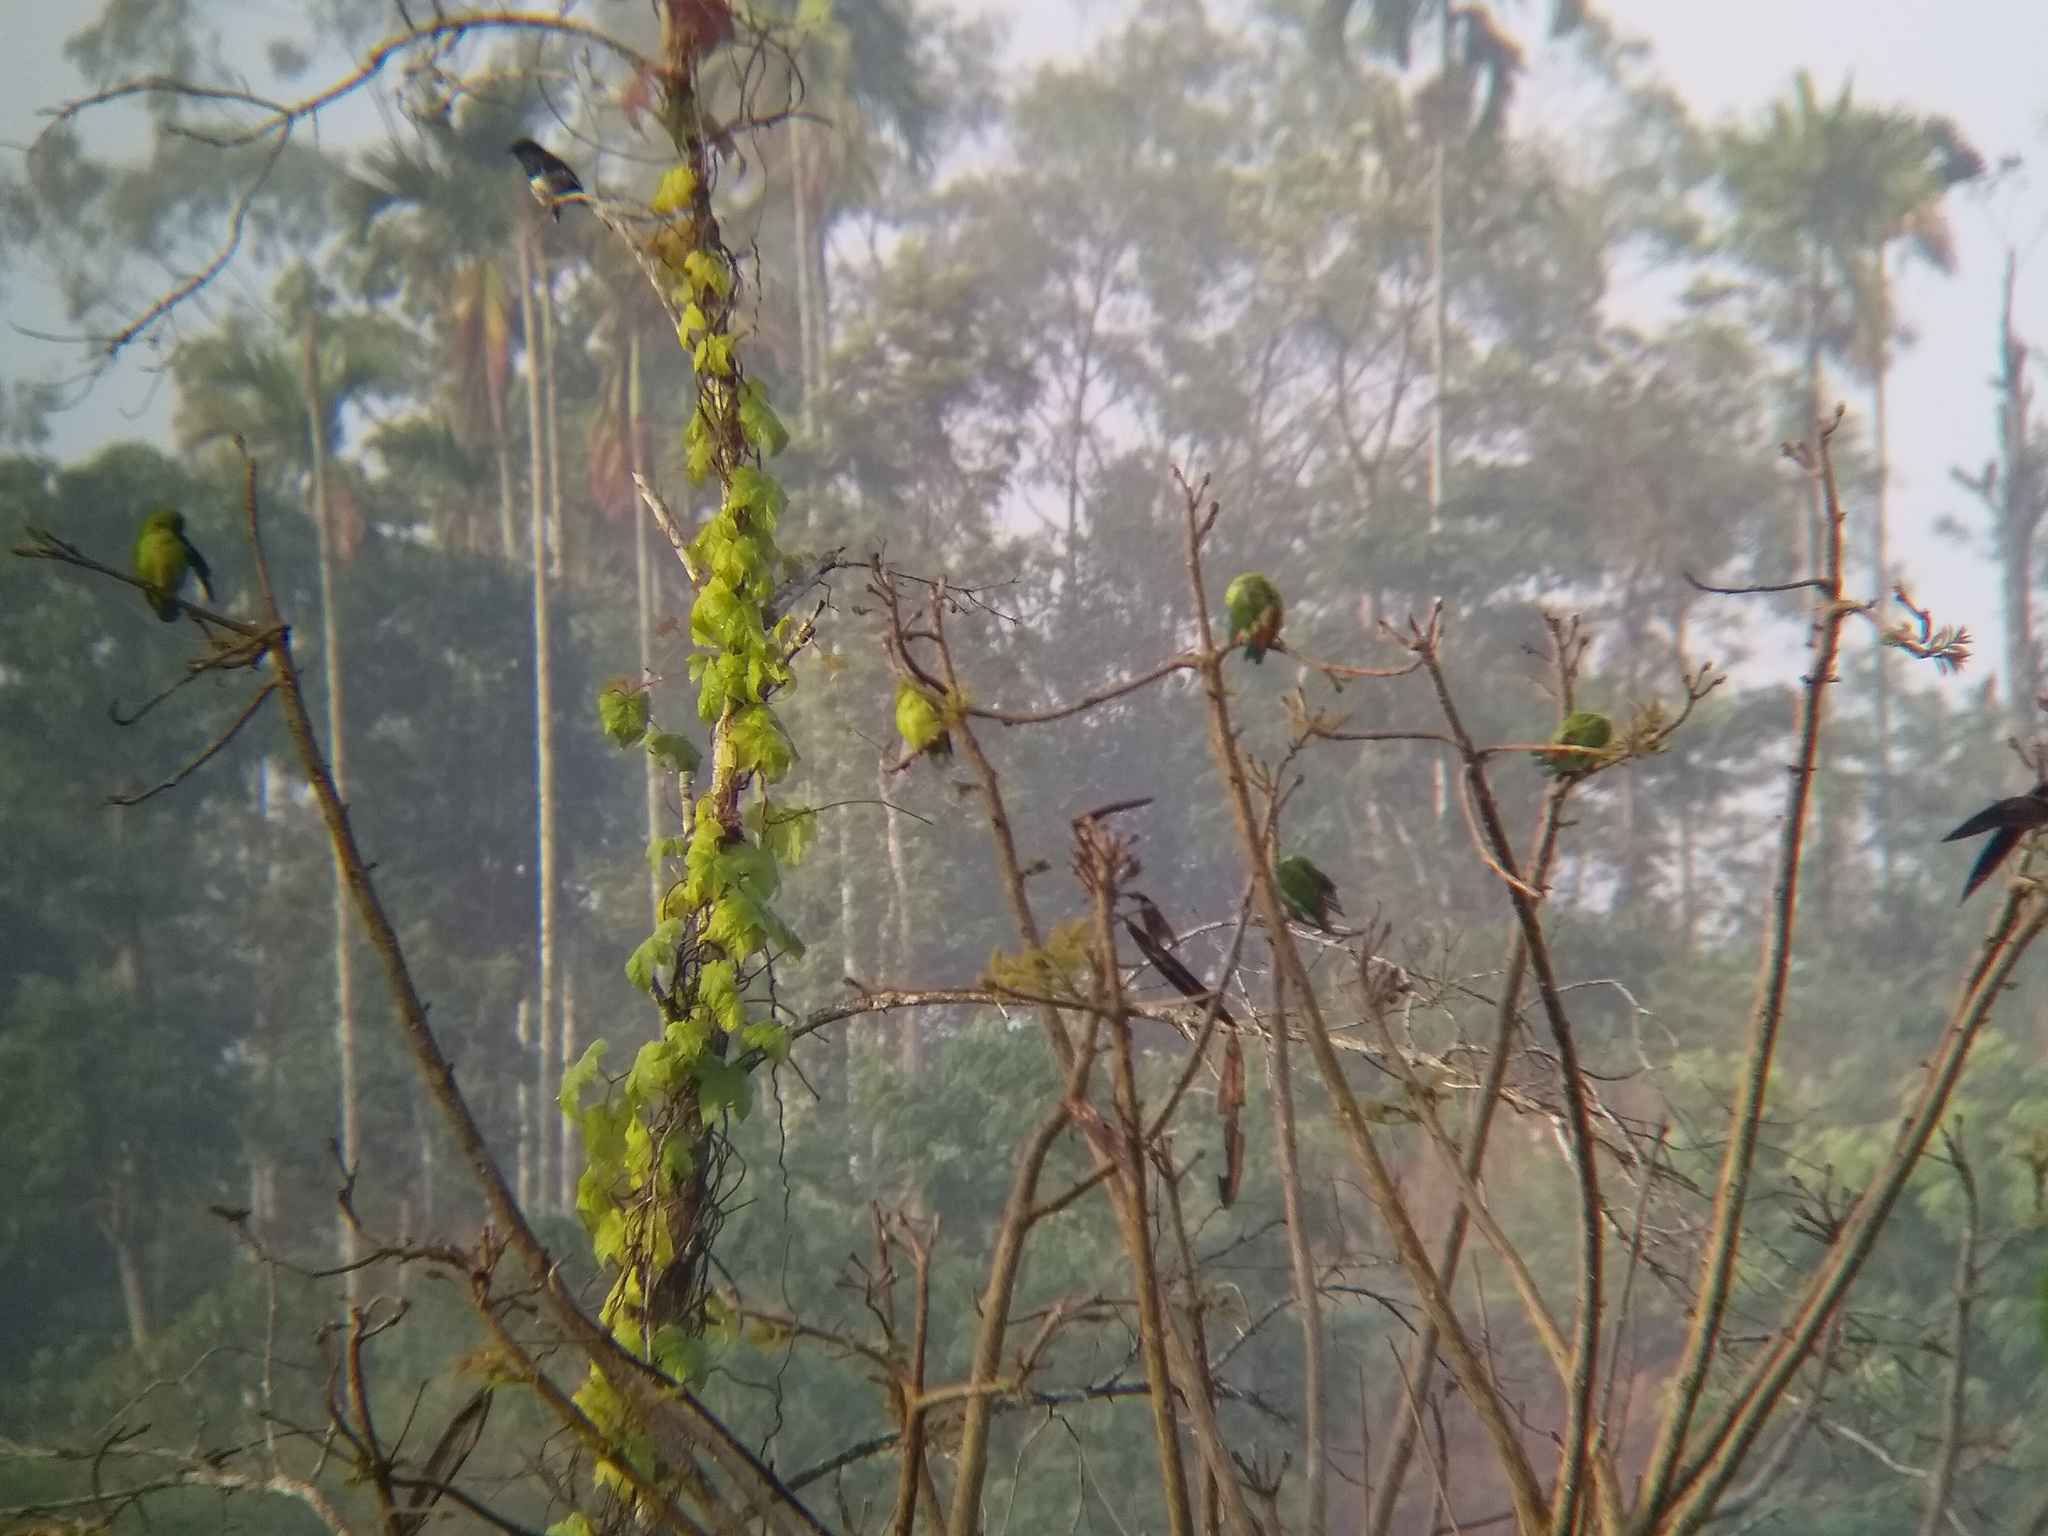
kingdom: Animalia
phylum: Chordata
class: Aves
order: Psittaciformes
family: Psittacidae
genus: Loriculus
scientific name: Loriculus vernalis
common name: Vernal hanging parrot
